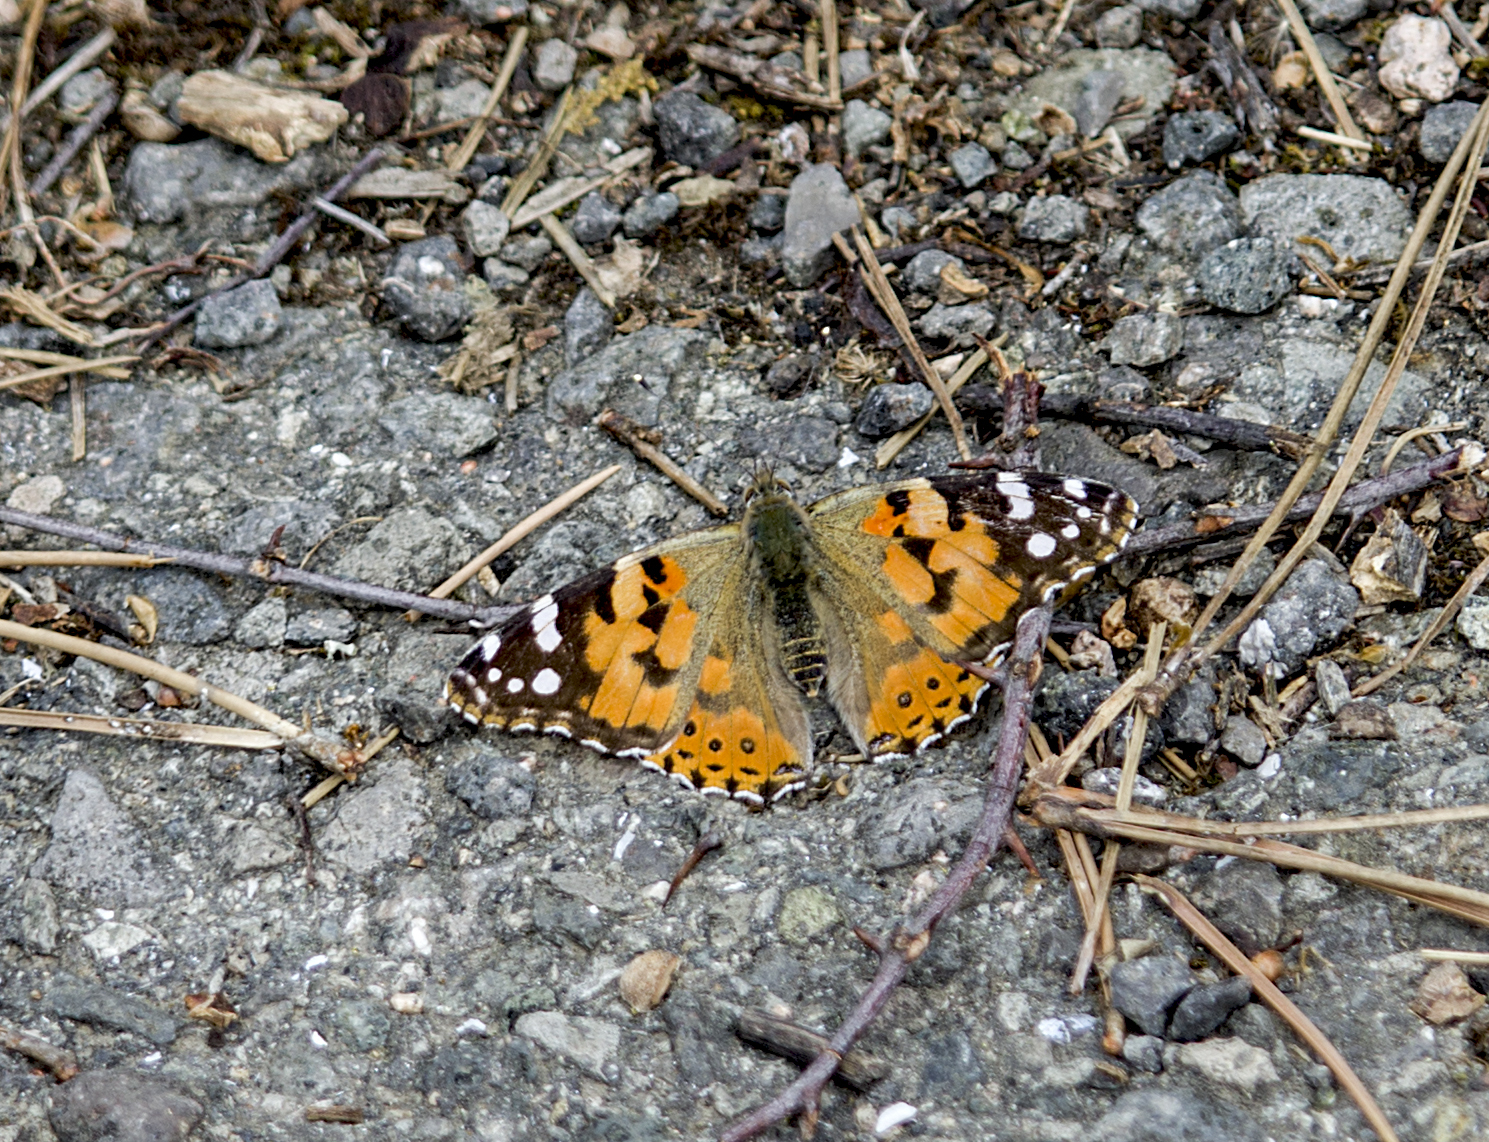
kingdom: Animalia
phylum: Arthropoda
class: Insecta
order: Lepidoptera
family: Nymphalidae
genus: Vanessa
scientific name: Vanessa cardui
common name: Painted lady
